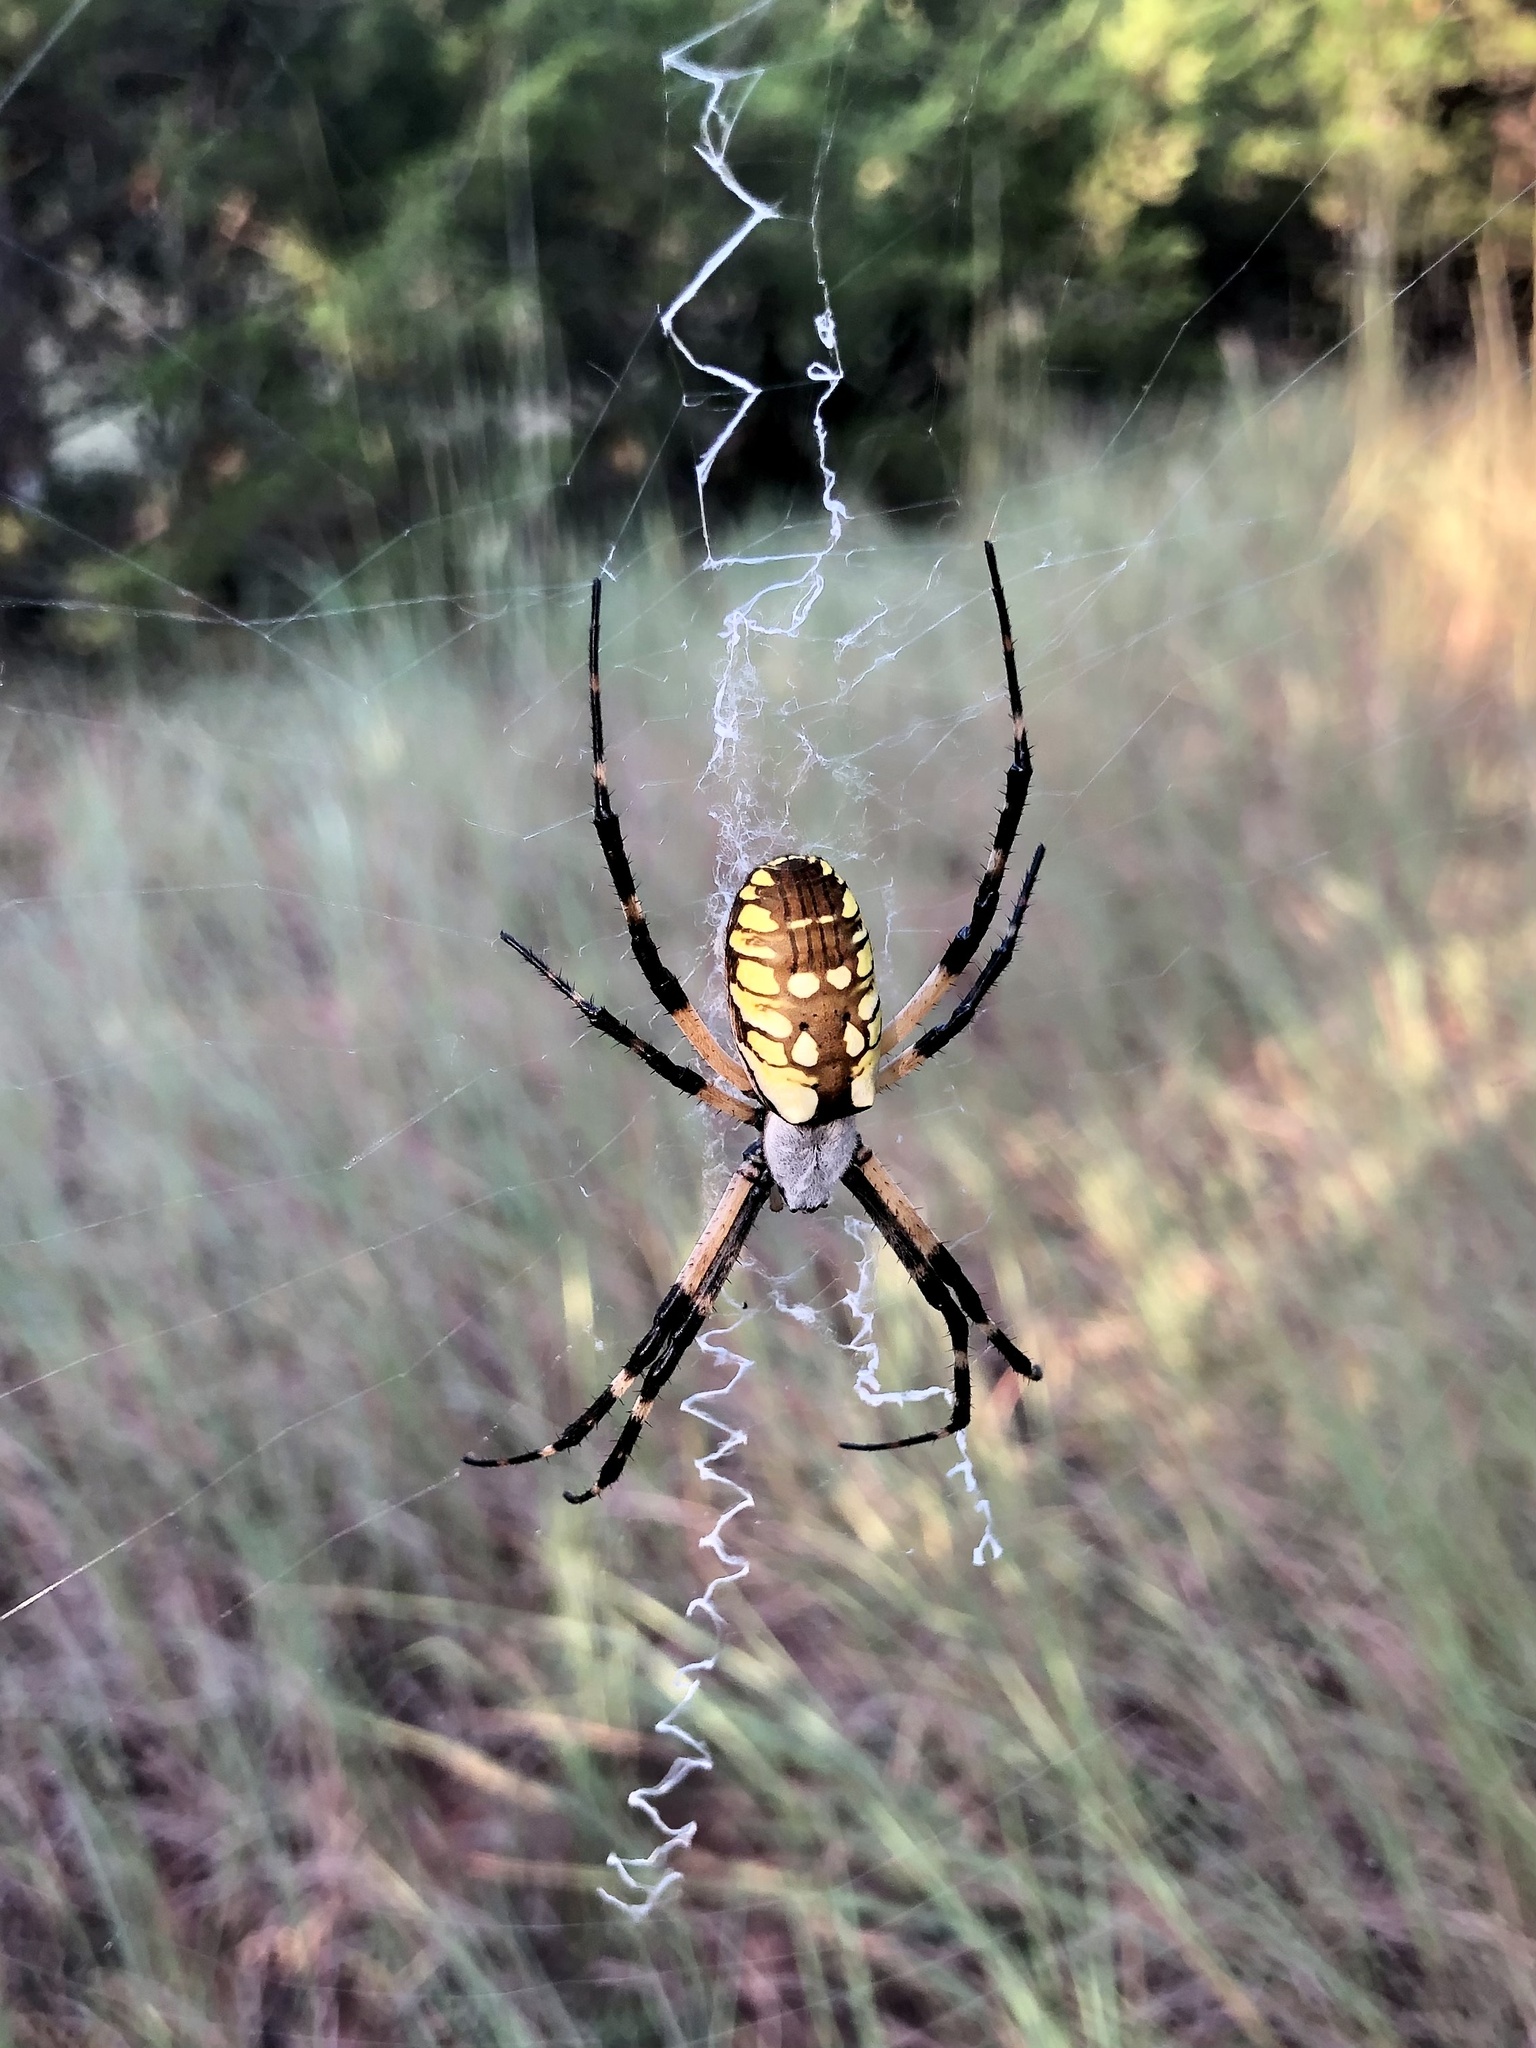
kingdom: Animalia
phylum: Arthropoda
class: Arachnida
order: Araneae
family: Araneidae
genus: Argiope
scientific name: Argiope aurantia
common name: Orb weavers
